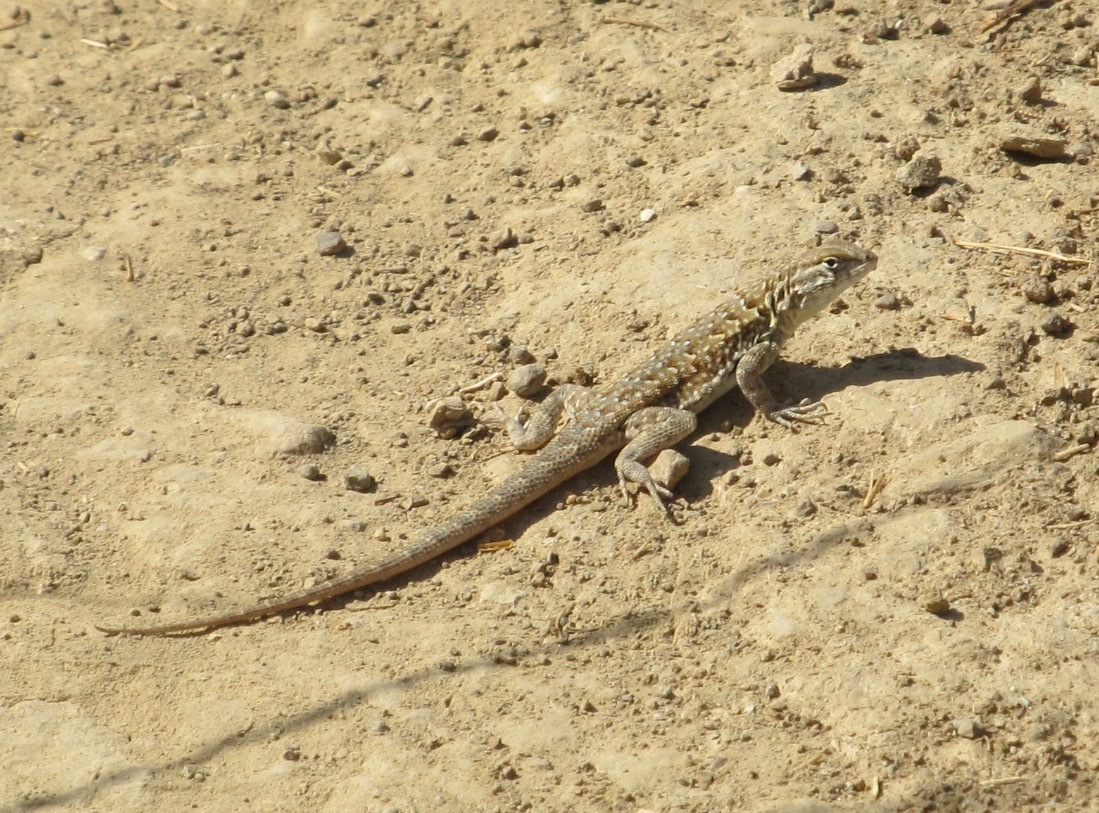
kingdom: Animalia
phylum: Chordata
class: Squamata
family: Phrynosomatidae
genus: Uta
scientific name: Uta stansburiana
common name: Side-blotched lizard
